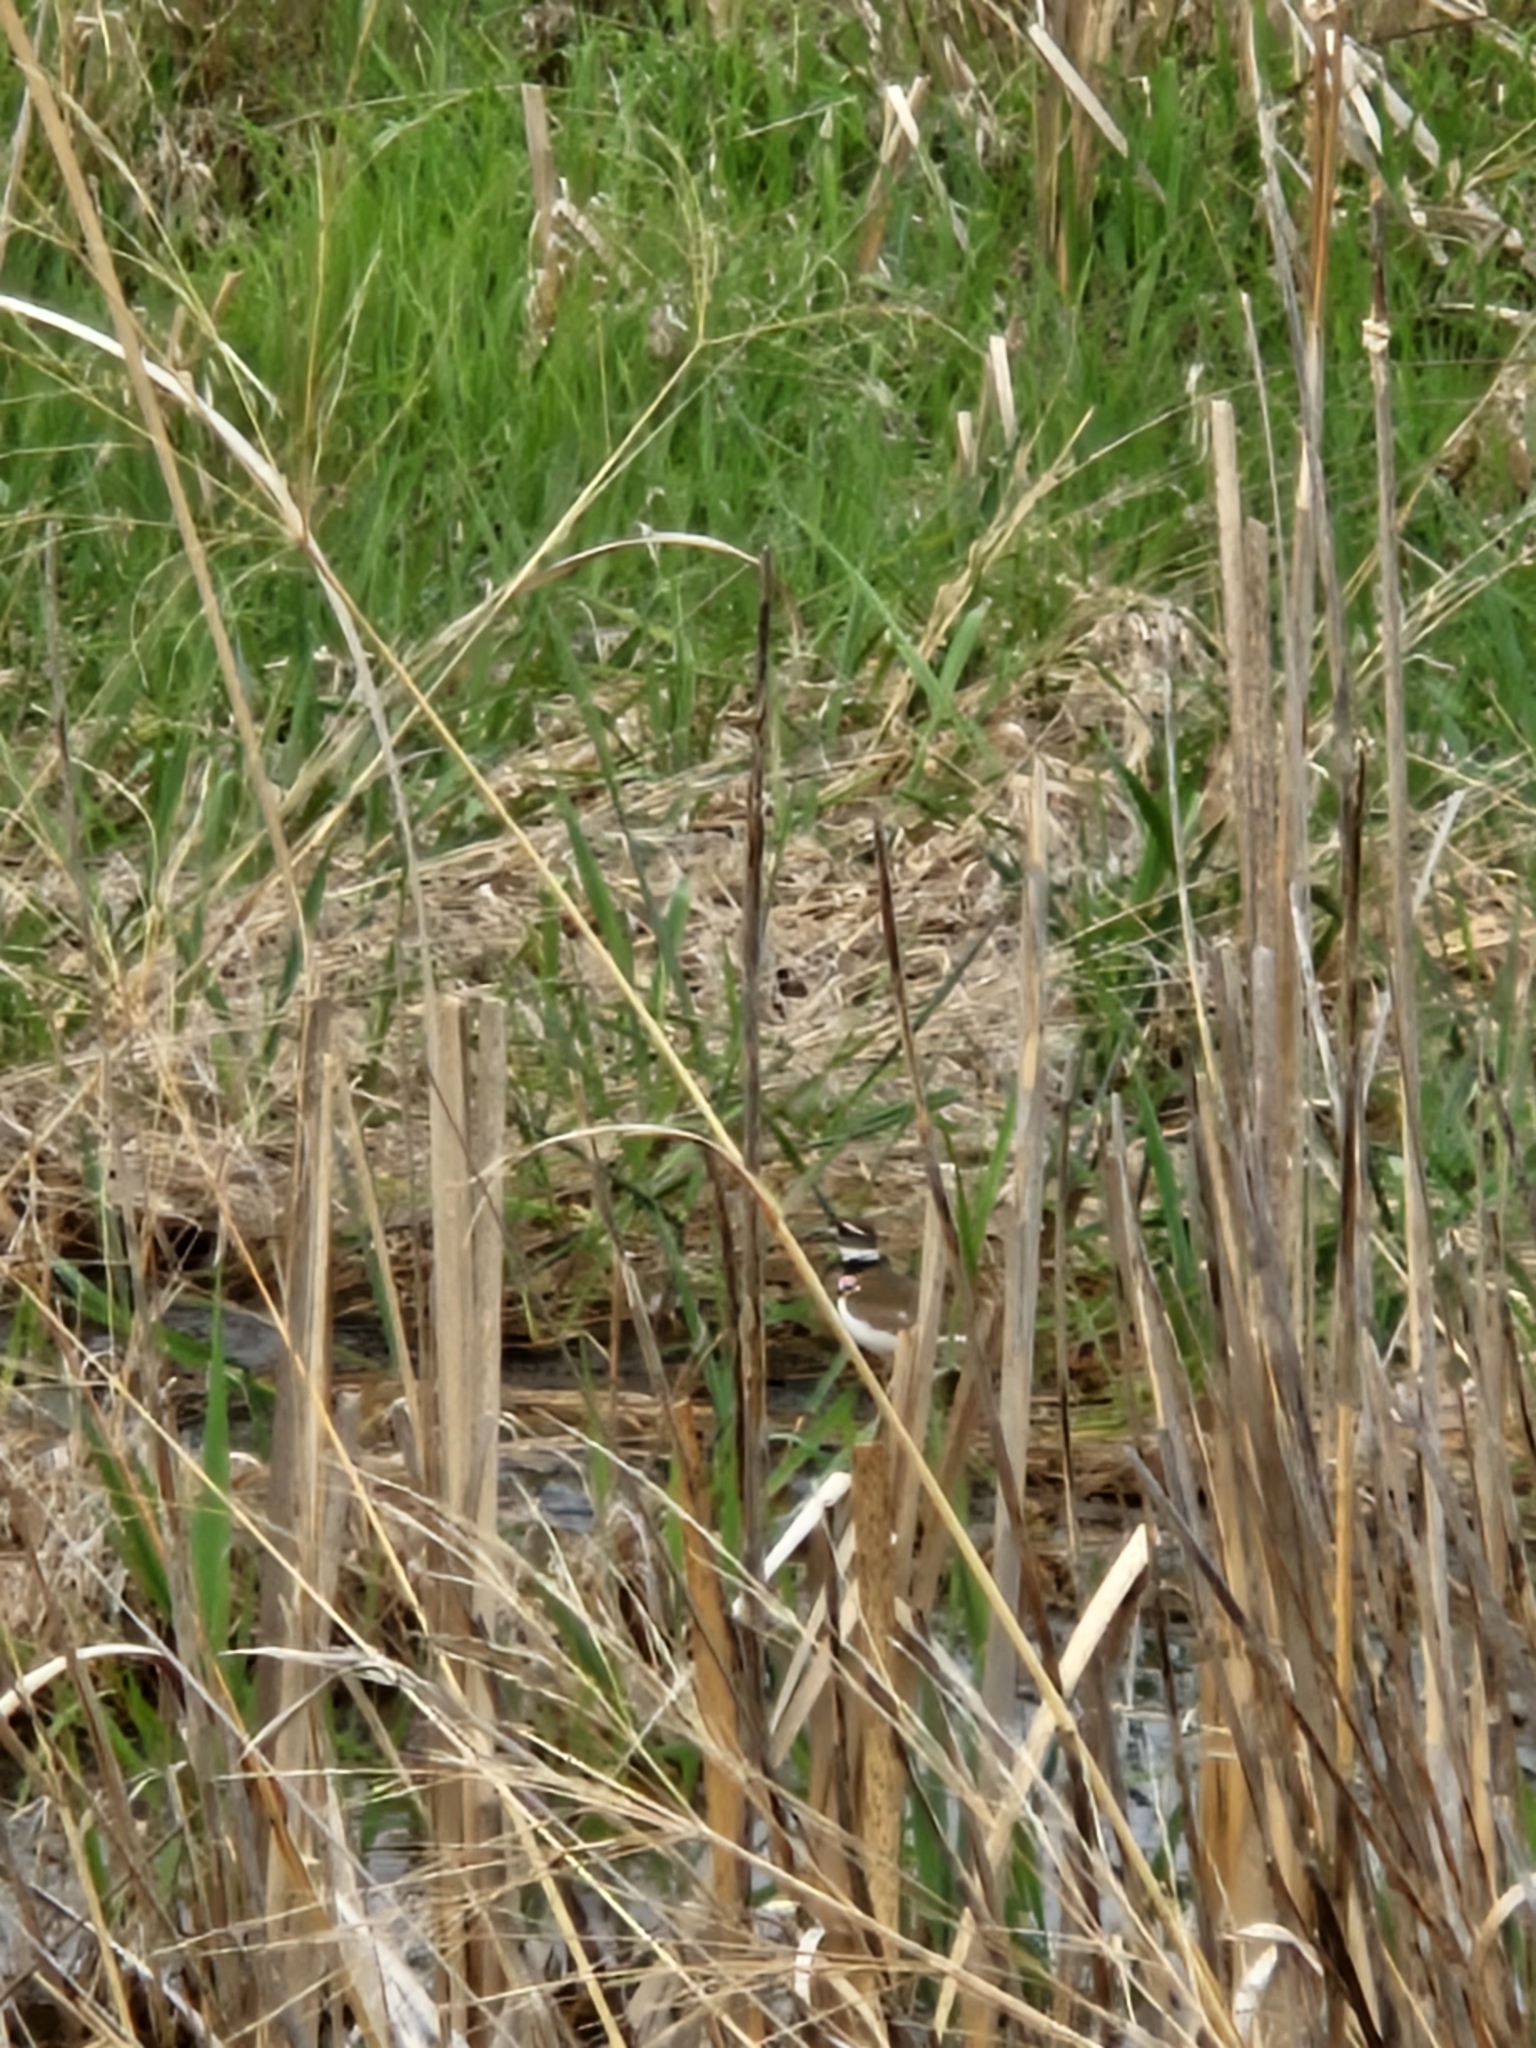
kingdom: Animalia
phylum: Chordata
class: Aves
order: Charadriiformes
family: Charadriidae
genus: Charadrius
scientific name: Charadrius vociferus
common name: Killdeer
